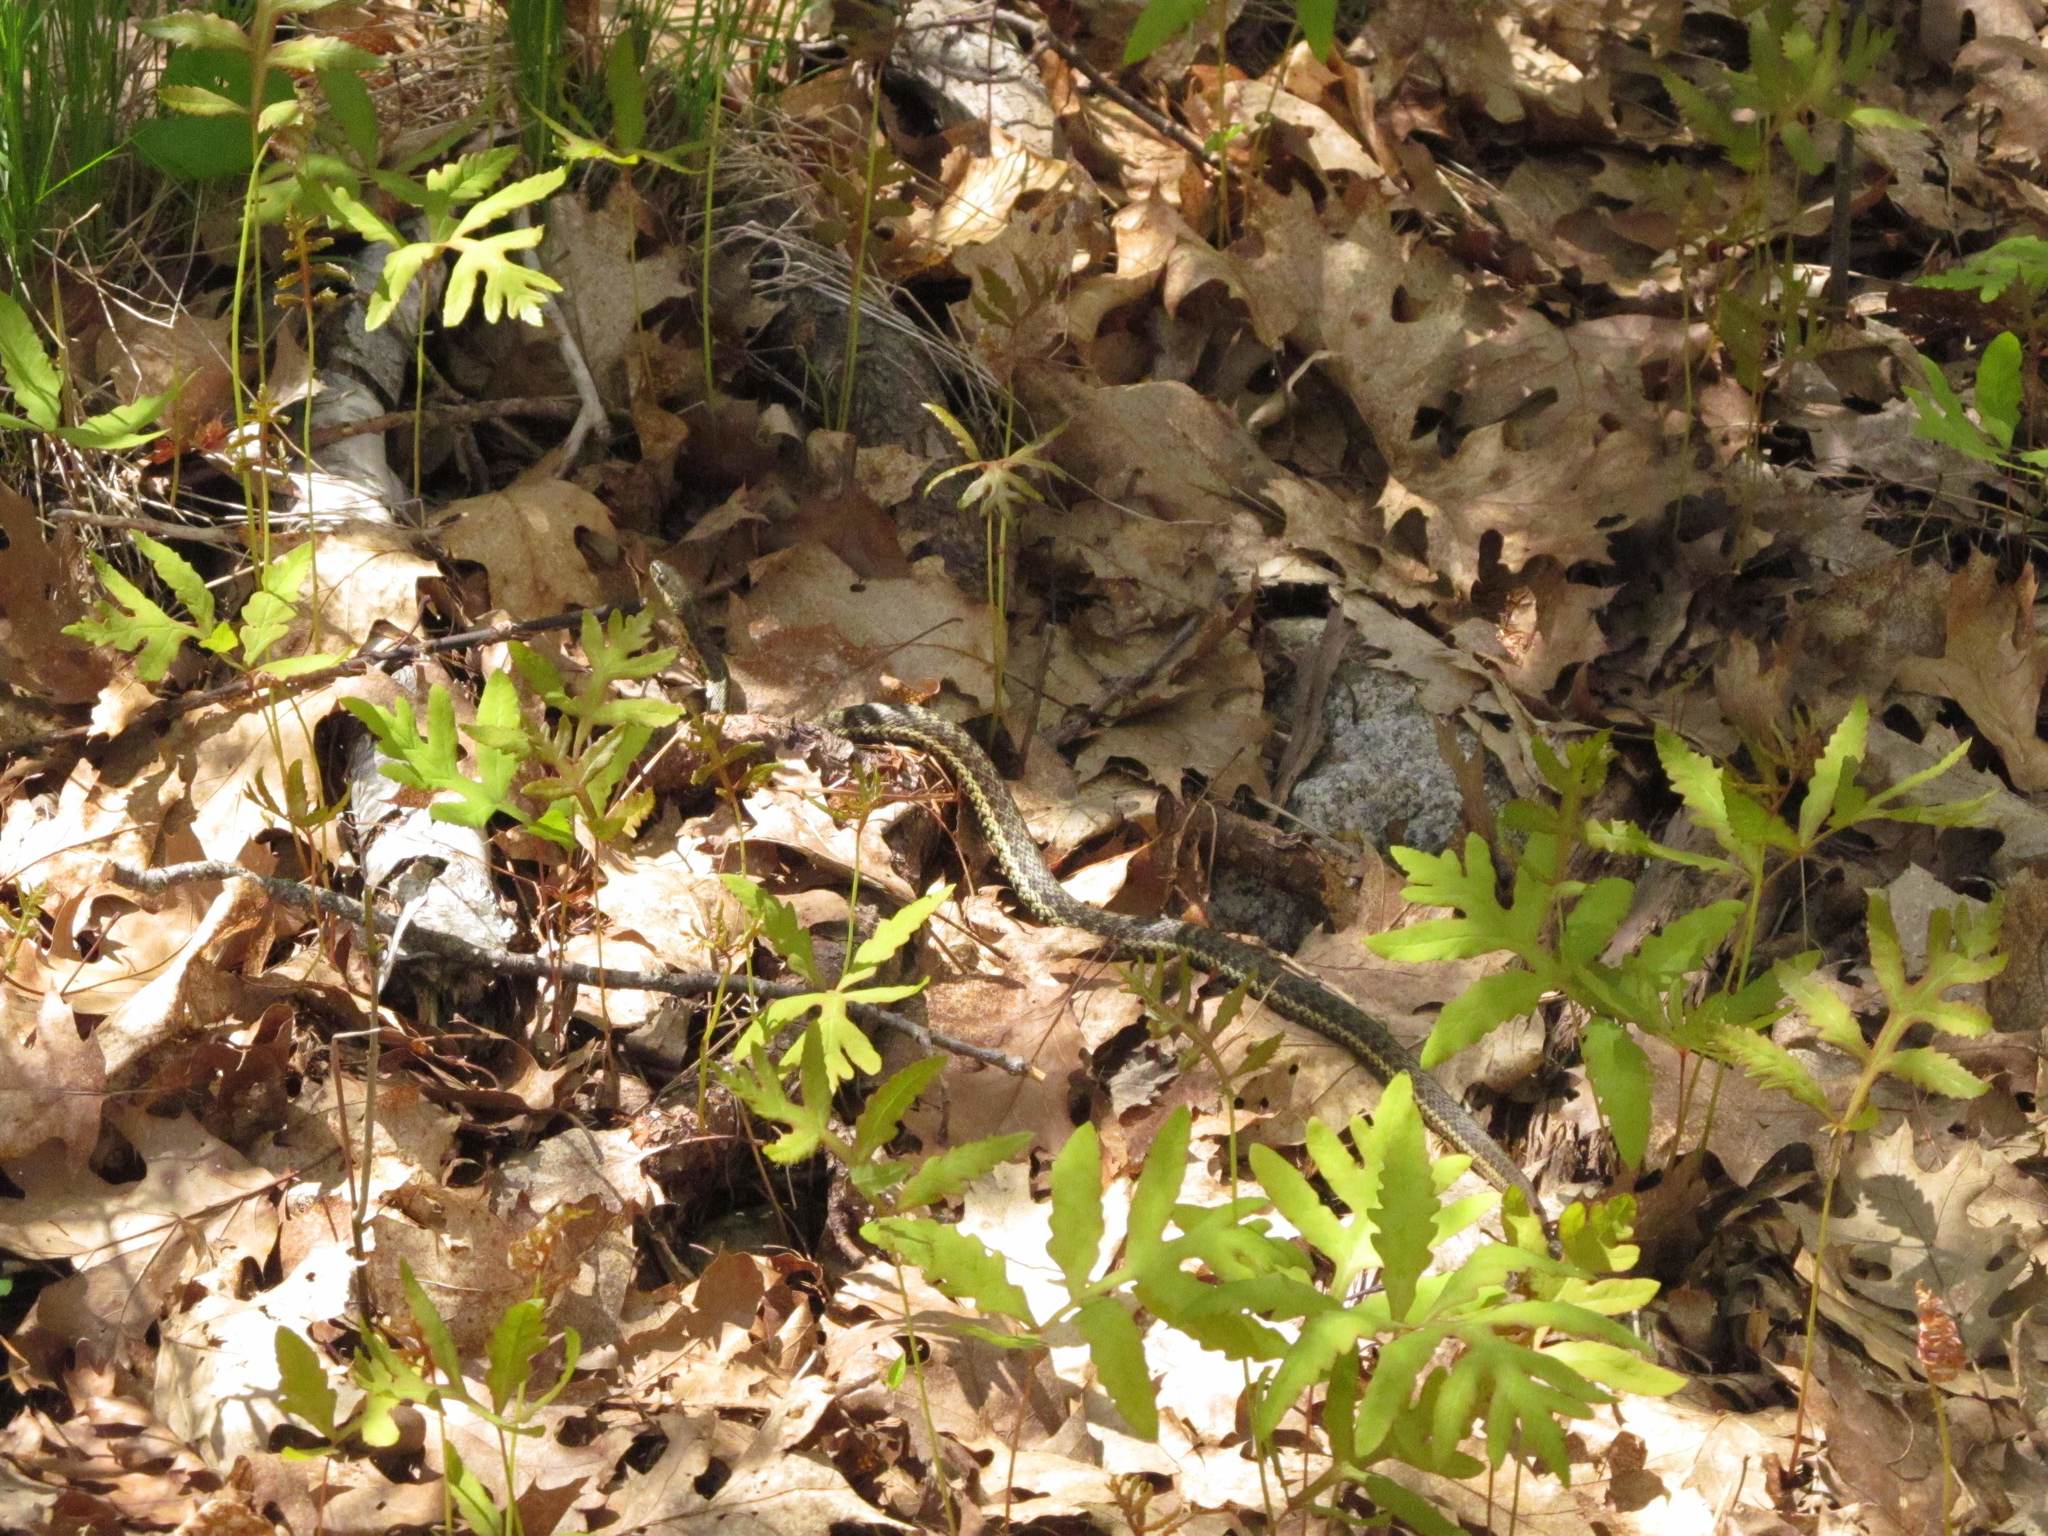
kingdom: Animalia
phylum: Chordata
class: Squamata
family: Colubridae
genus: Thamnophis
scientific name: Thamnophis sirtalis
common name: Common garter snake
